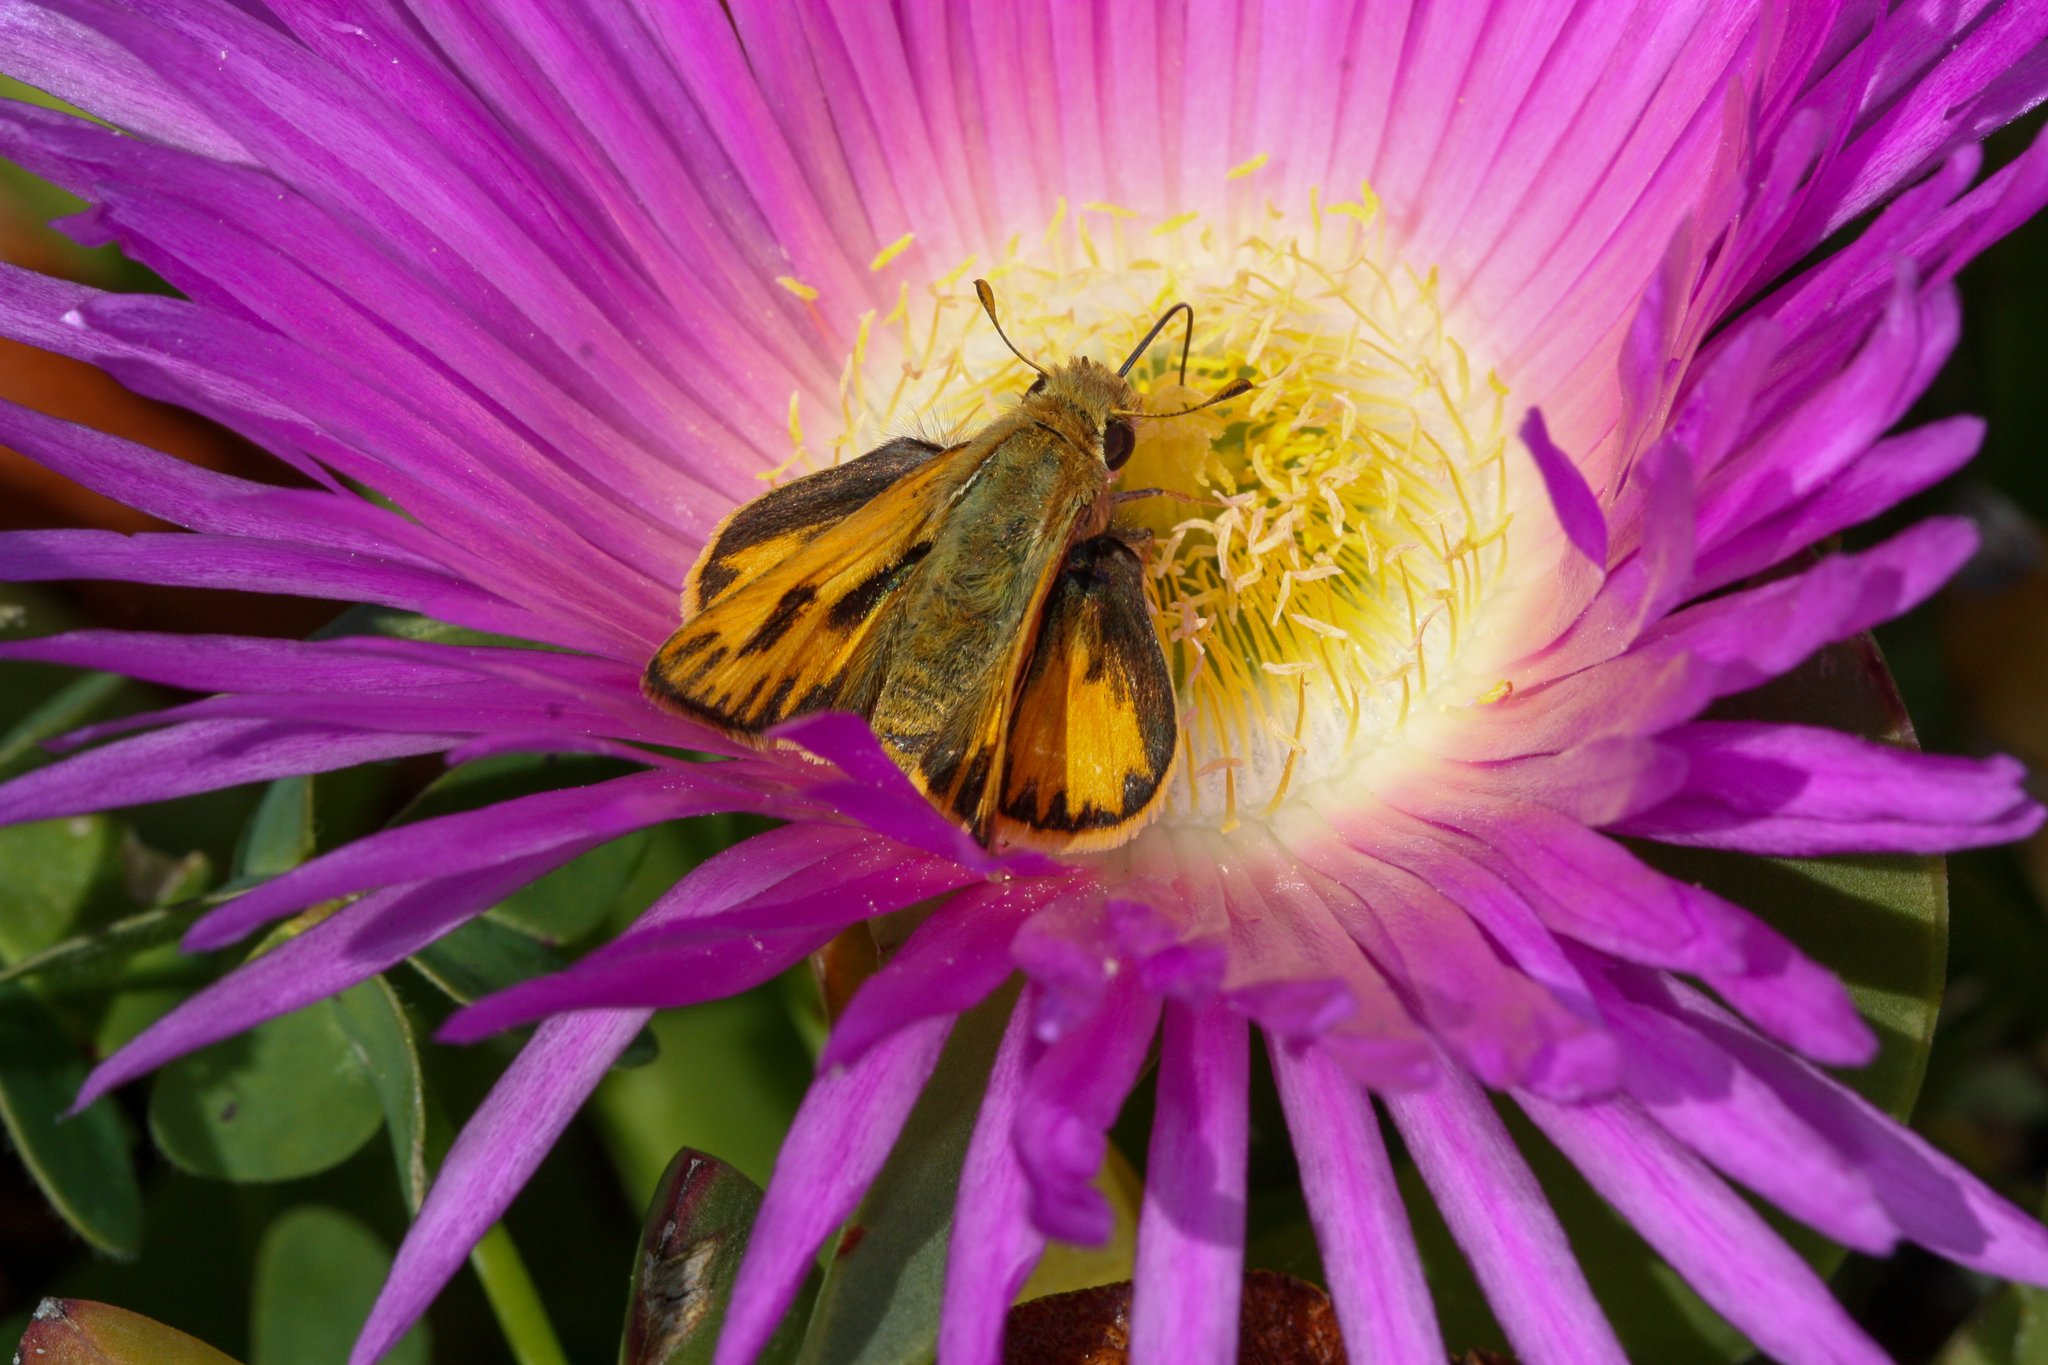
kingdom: Animalia
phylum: Arthropoda
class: Insecta
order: Lepidoptera
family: Hesperiidae
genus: Hylephila
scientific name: Hylephila phyleus
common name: Fiery skipper
